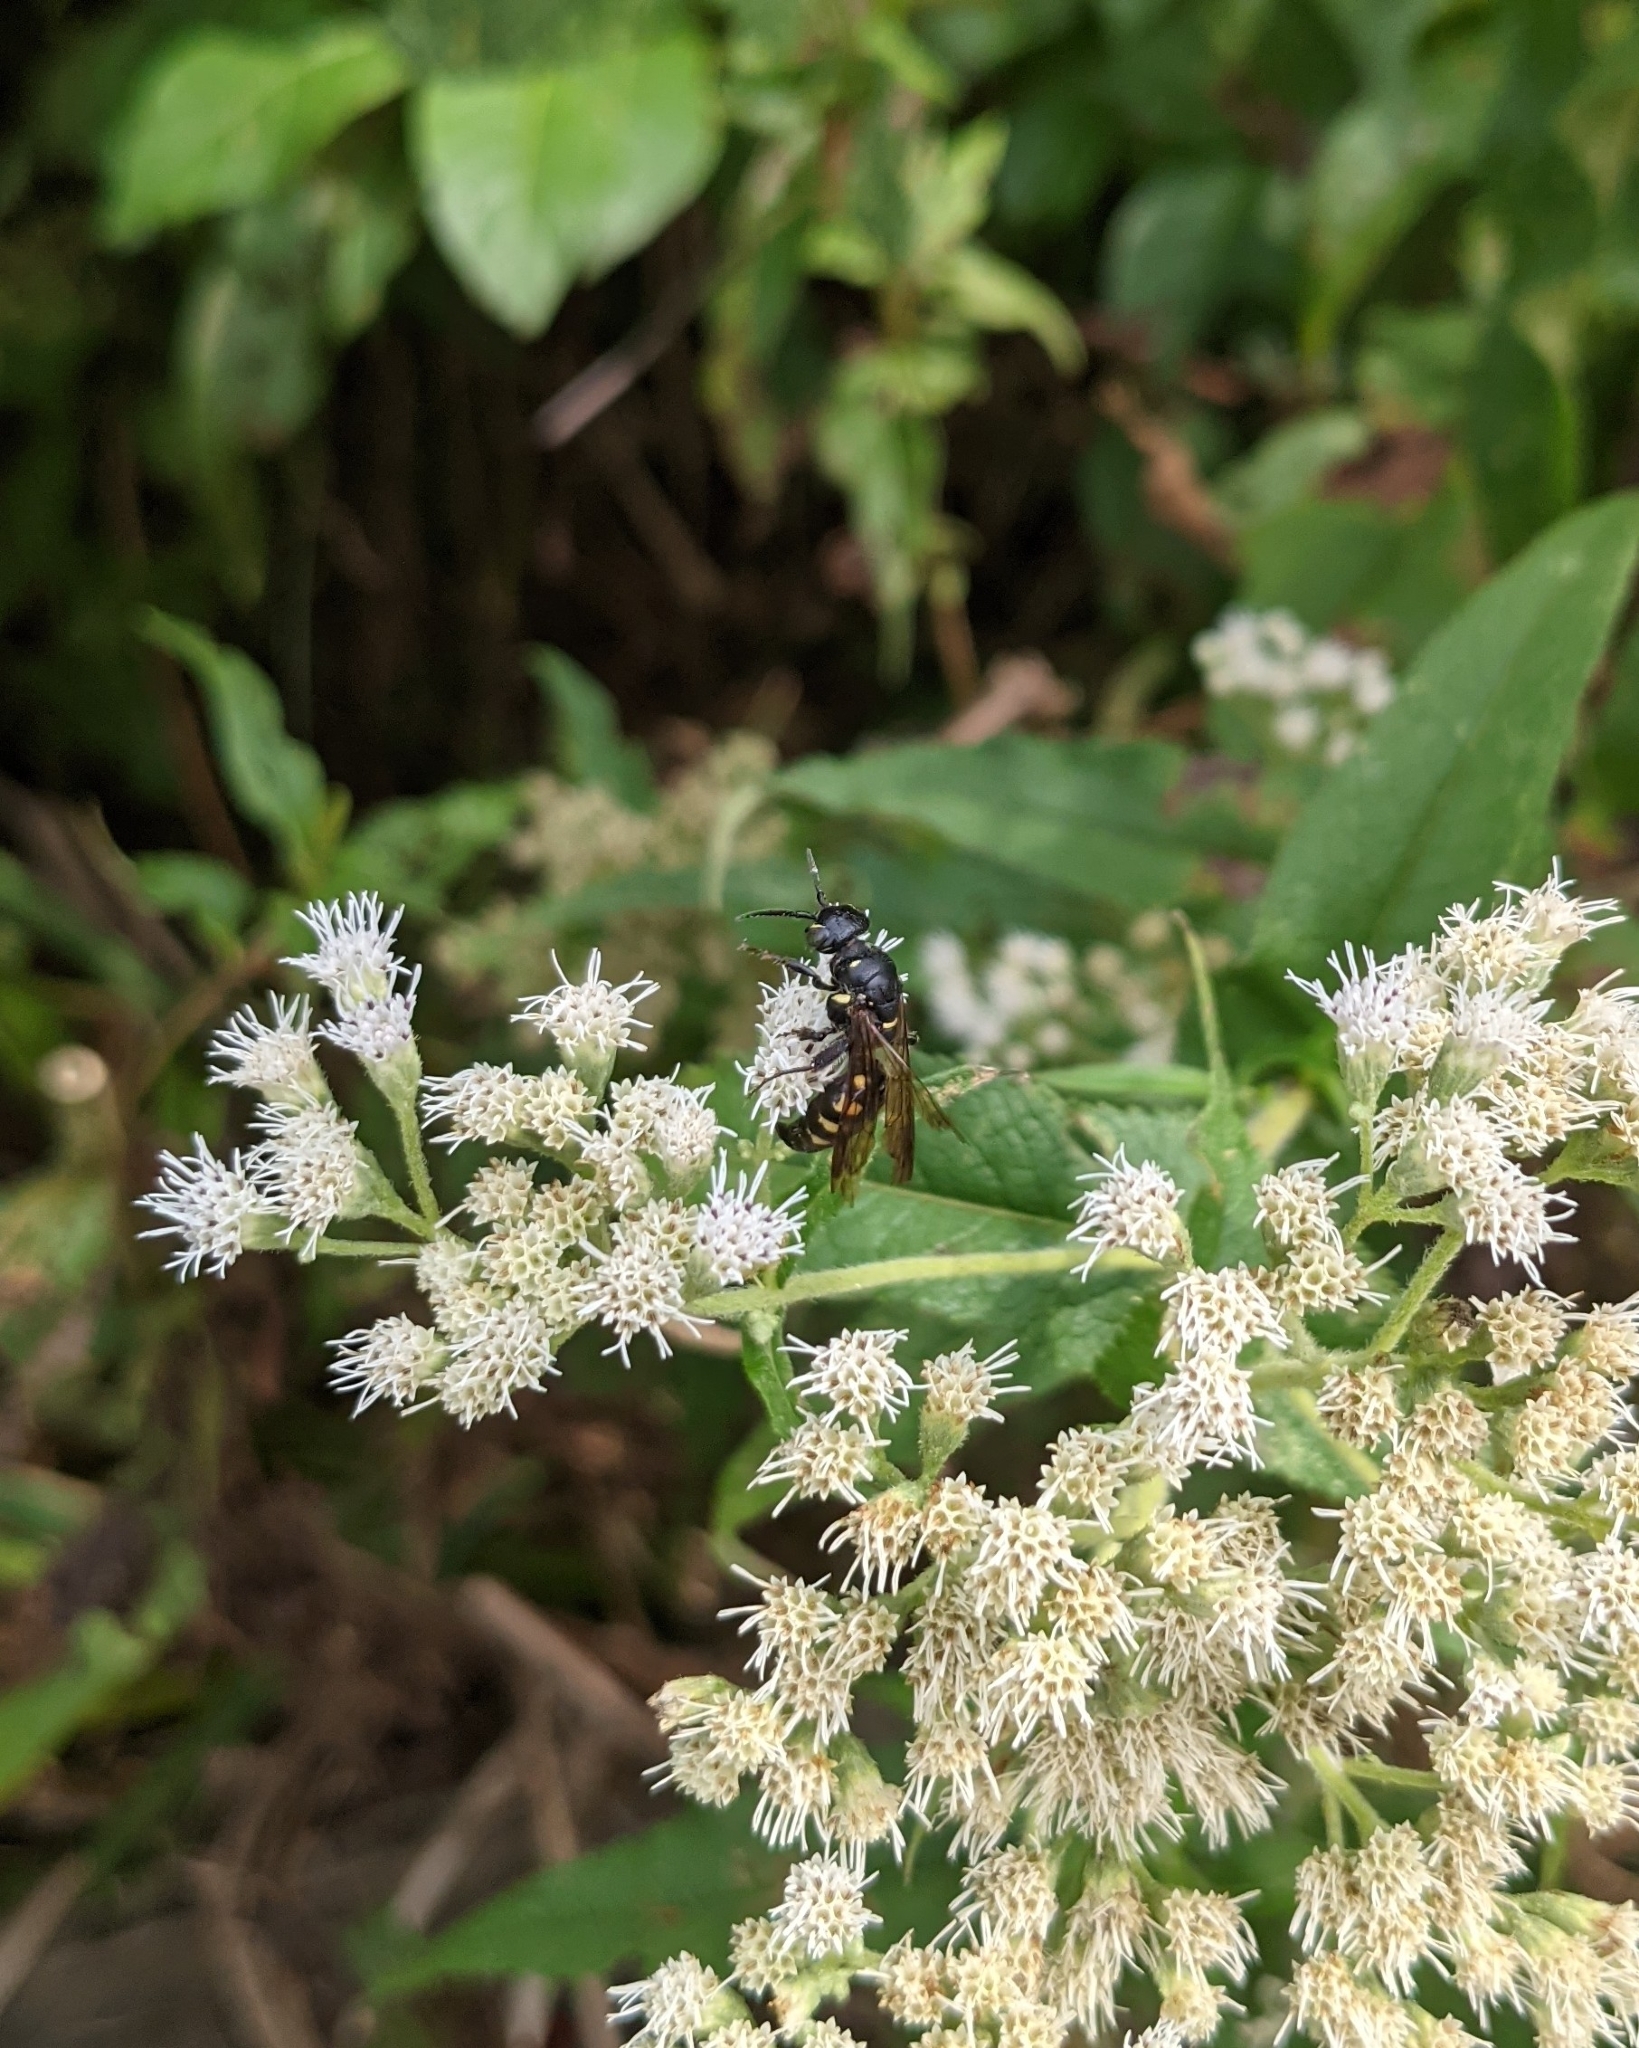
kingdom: Animalia
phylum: Arthropoda
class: Insecta
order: Hymenoptera
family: Tiphiidae
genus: Myzinum
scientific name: Myzinum obscurum
